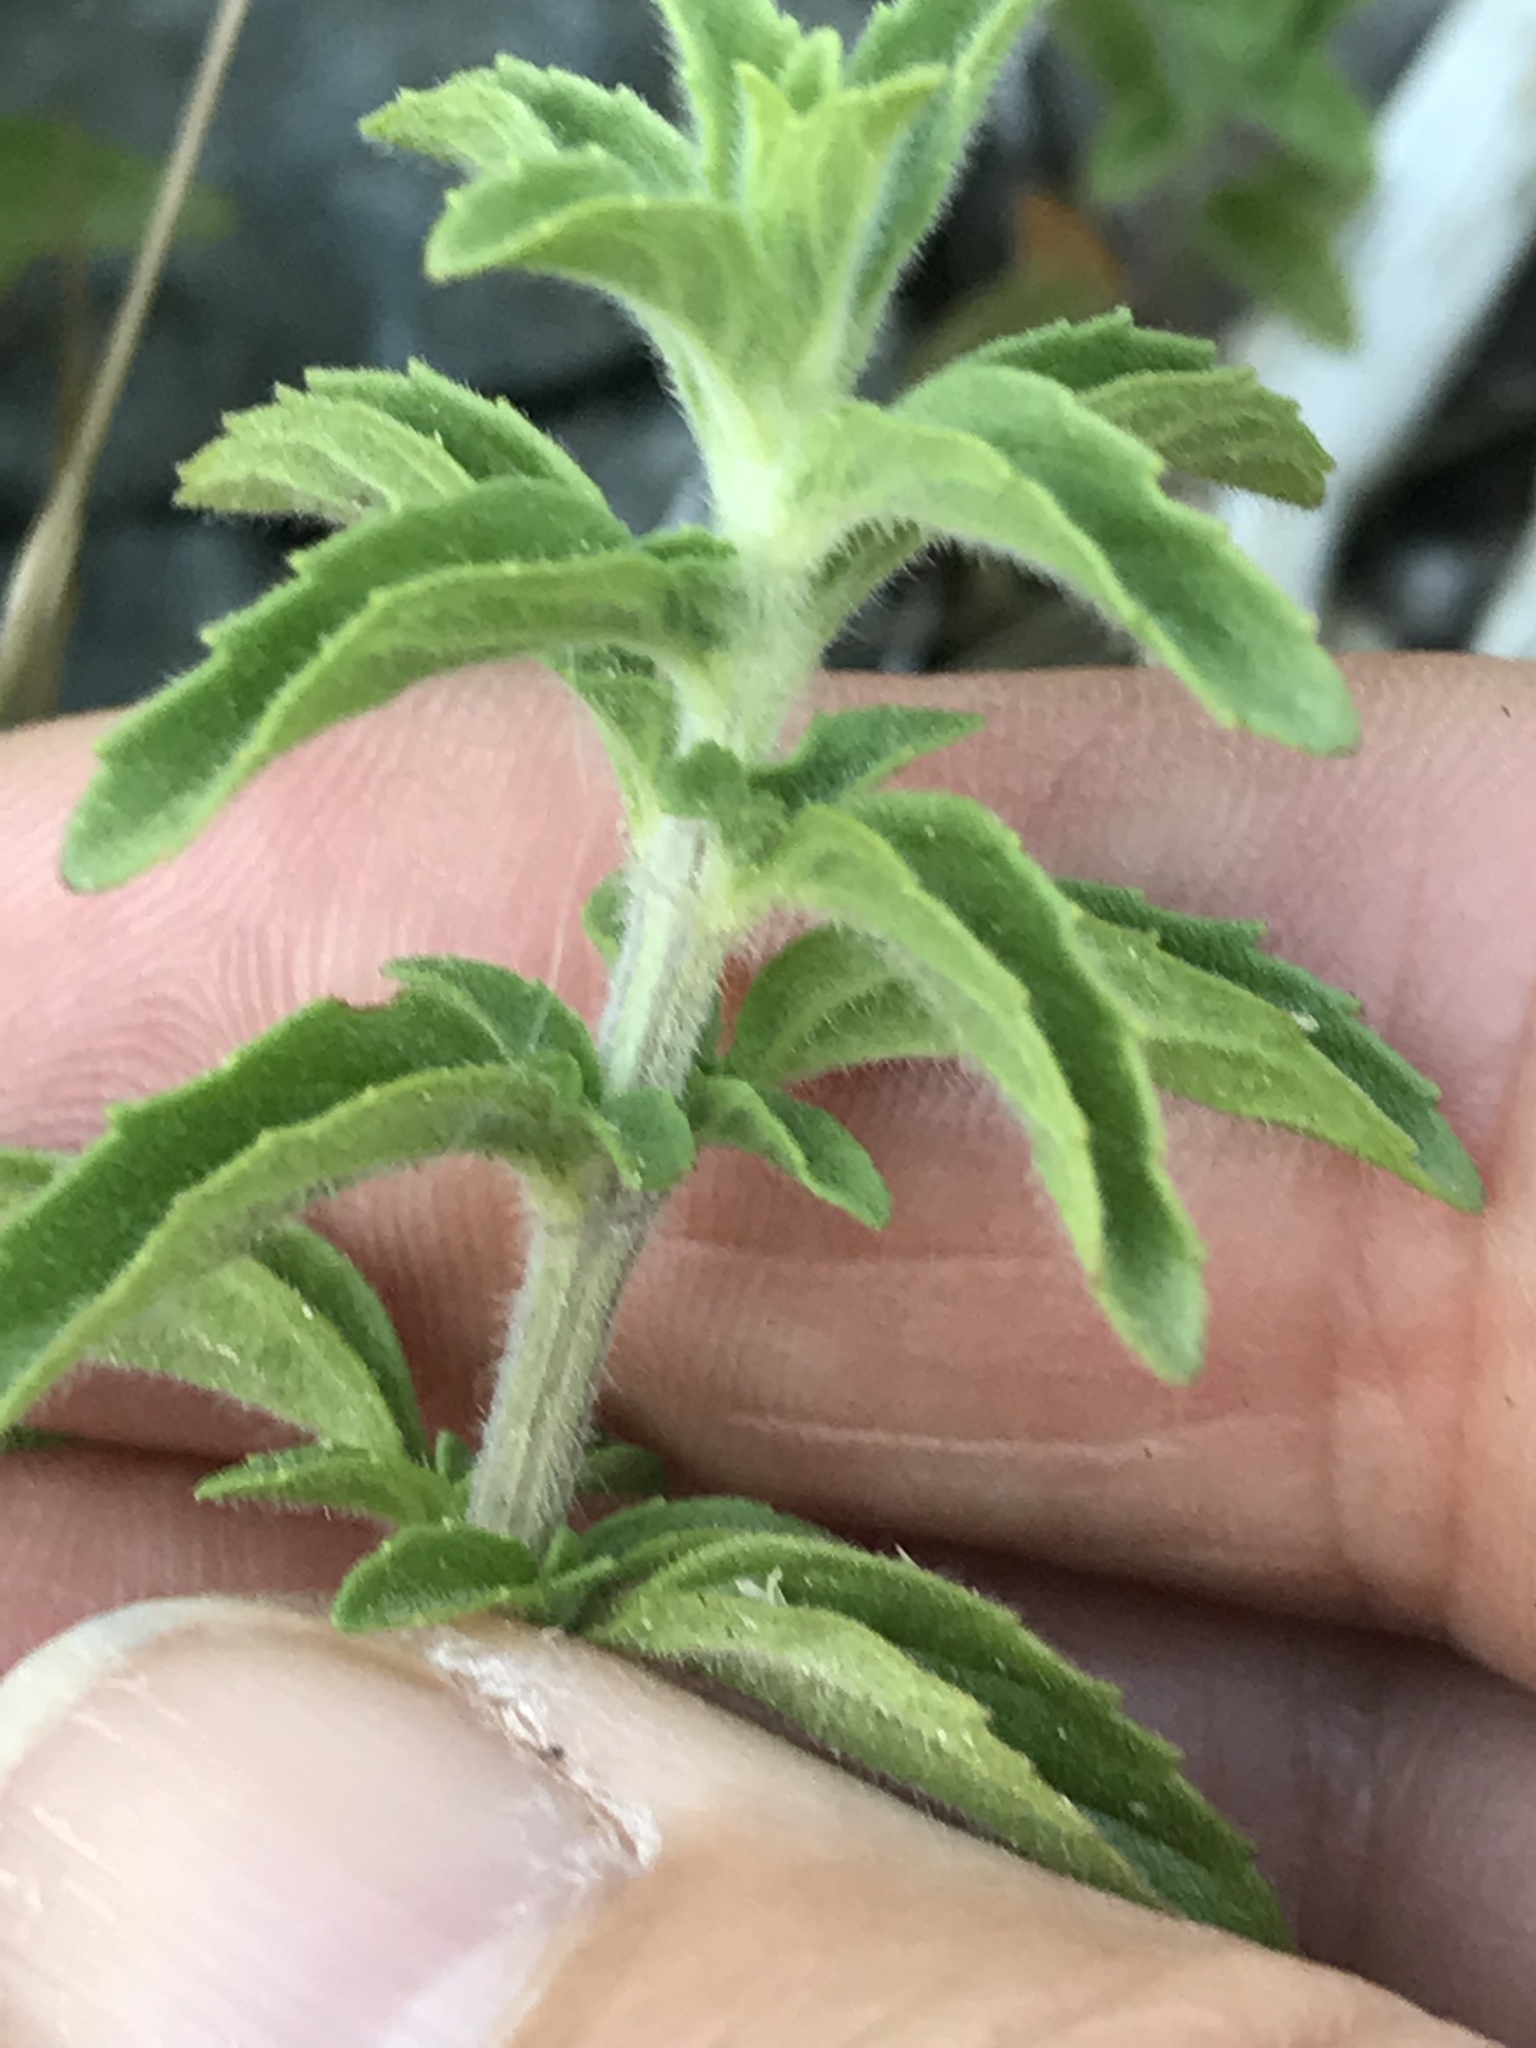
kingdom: Plantae
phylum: Tracheophyta
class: Magnoliopsida
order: Lamiales
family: Lamiaceae
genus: Mentha
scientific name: Mentha pulegium
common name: Pennyroyal
